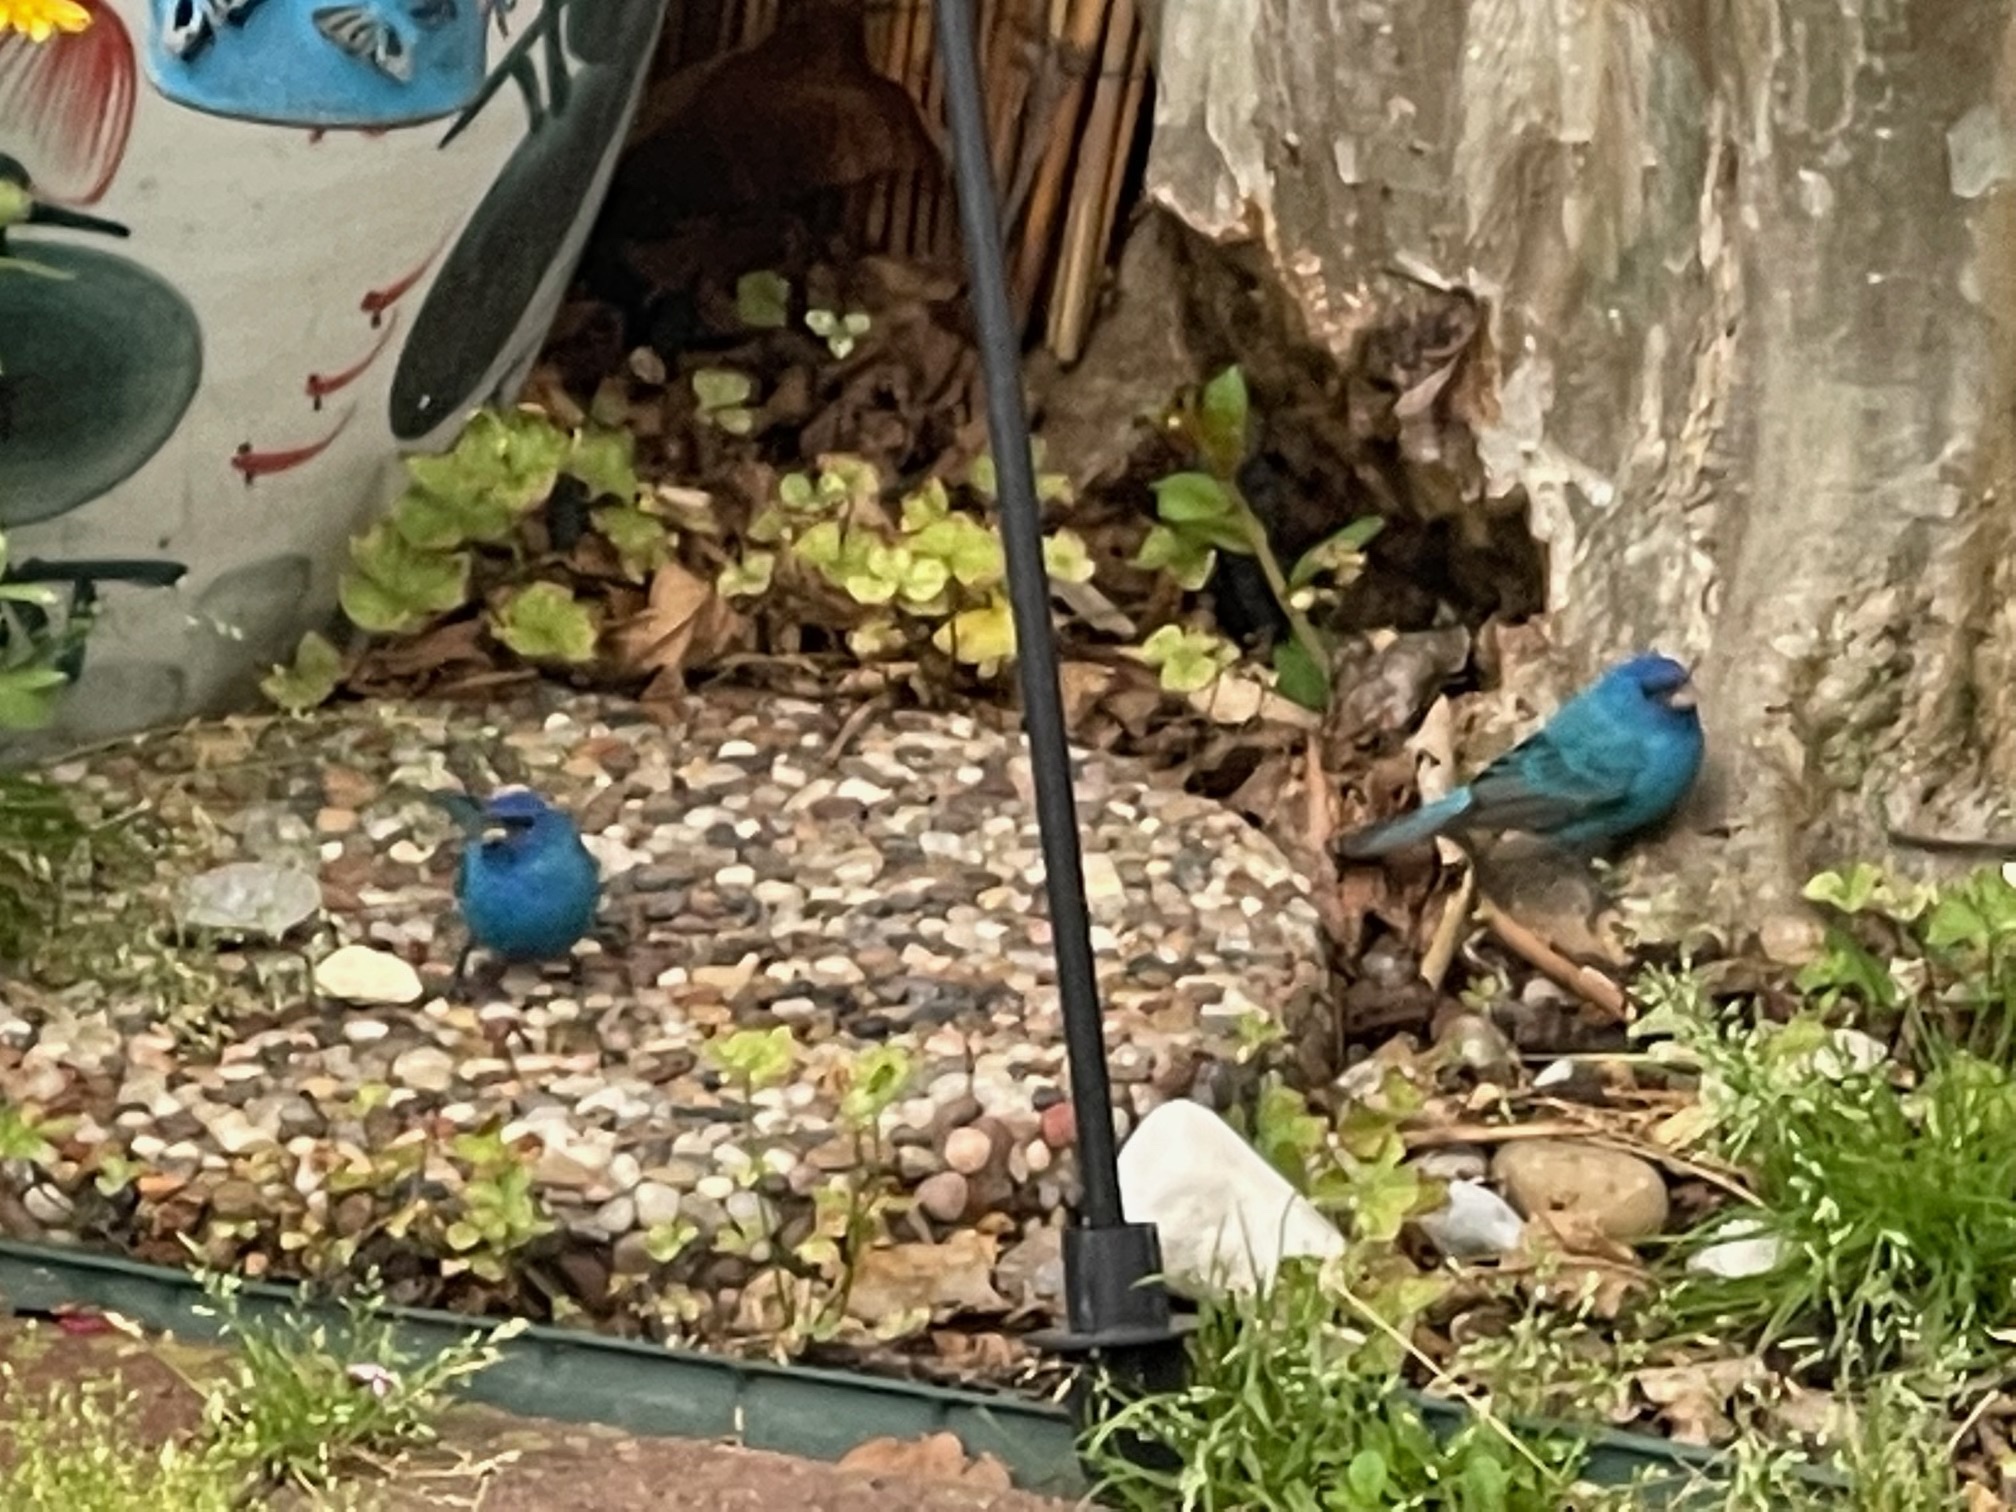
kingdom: Animalia
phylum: Chordata
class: Aves
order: Passeriformes
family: Cardinalidae
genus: Passerina
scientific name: Passerina cyanea
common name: Indigo bunting
